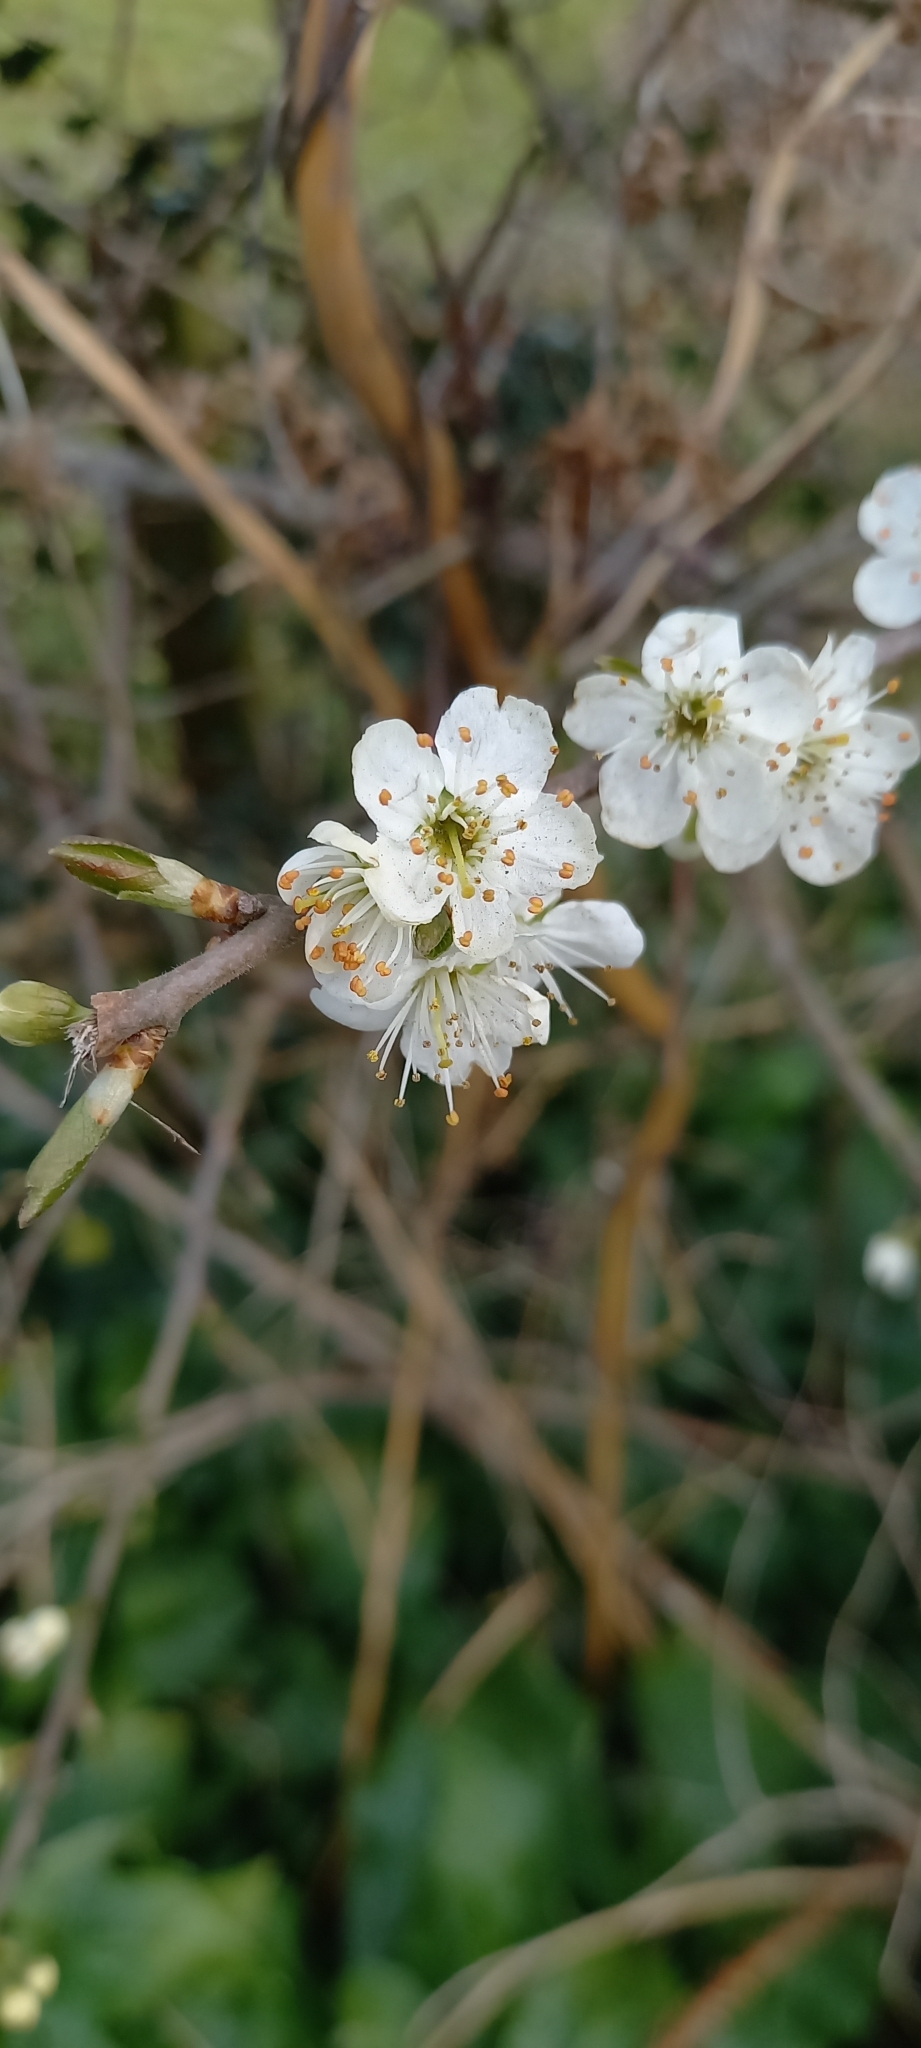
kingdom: Plantae
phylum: Tracheophyta
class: Magnoliopsida
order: Rosales
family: Rosaceae
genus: Prunus
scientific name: Prunus spinosa
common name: Blackthorn
